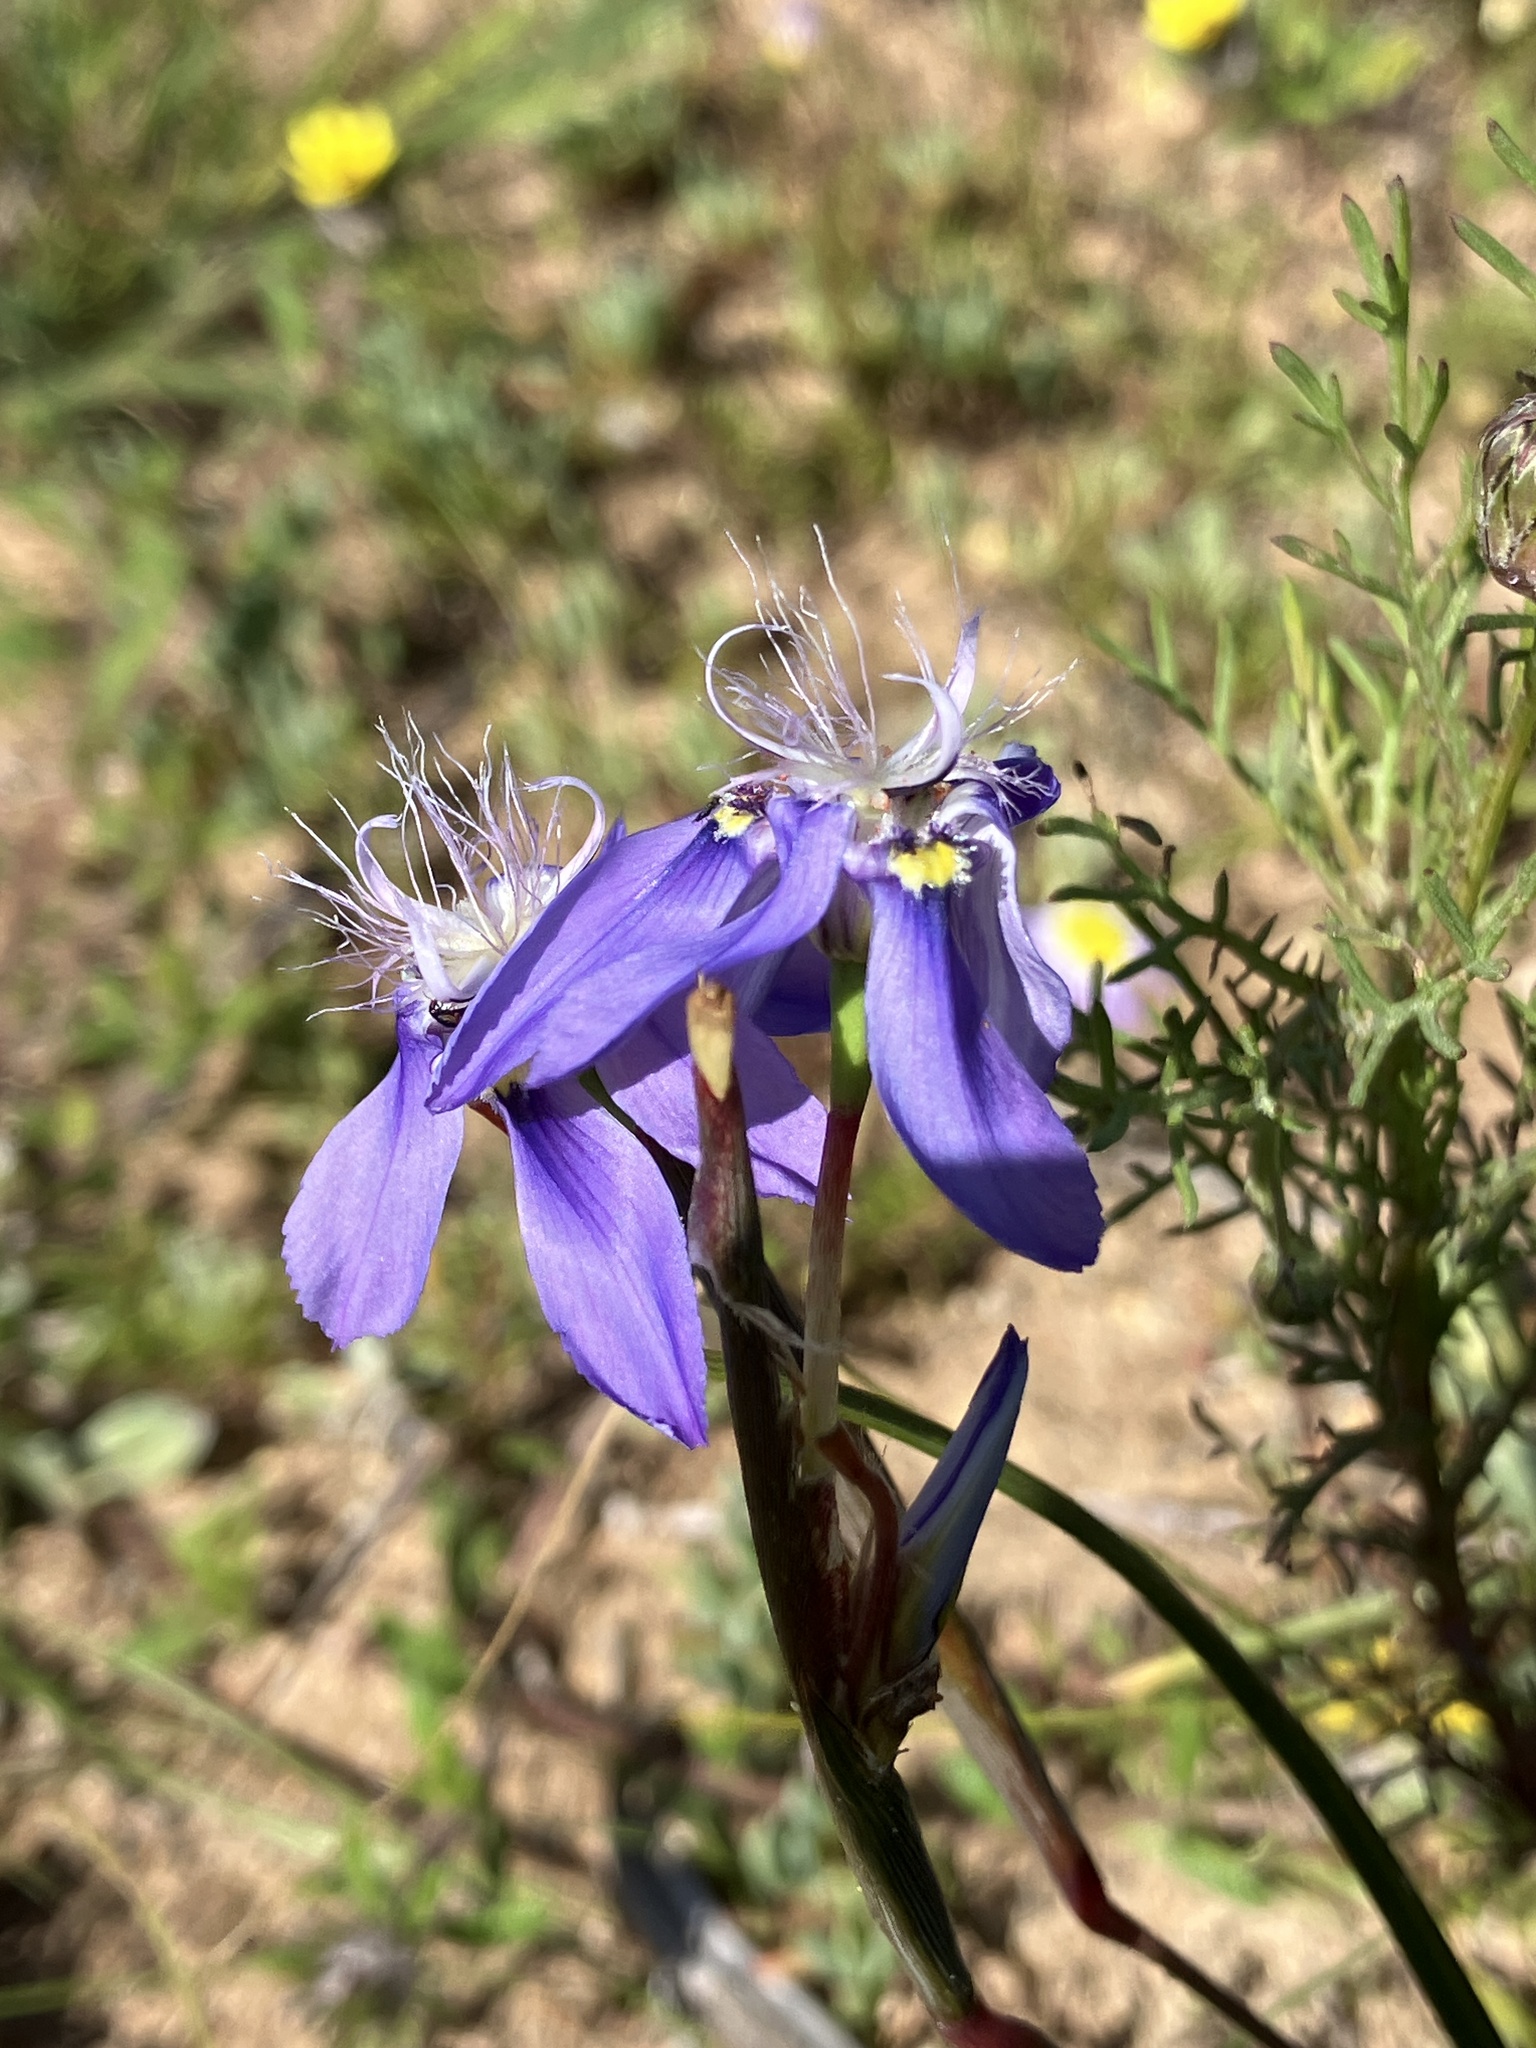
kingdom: Plantae
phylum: Tracheophyta
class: Liliopsida
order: Asparagales
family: Iridaceae
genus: Moraea
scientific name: Moraea lugubris
